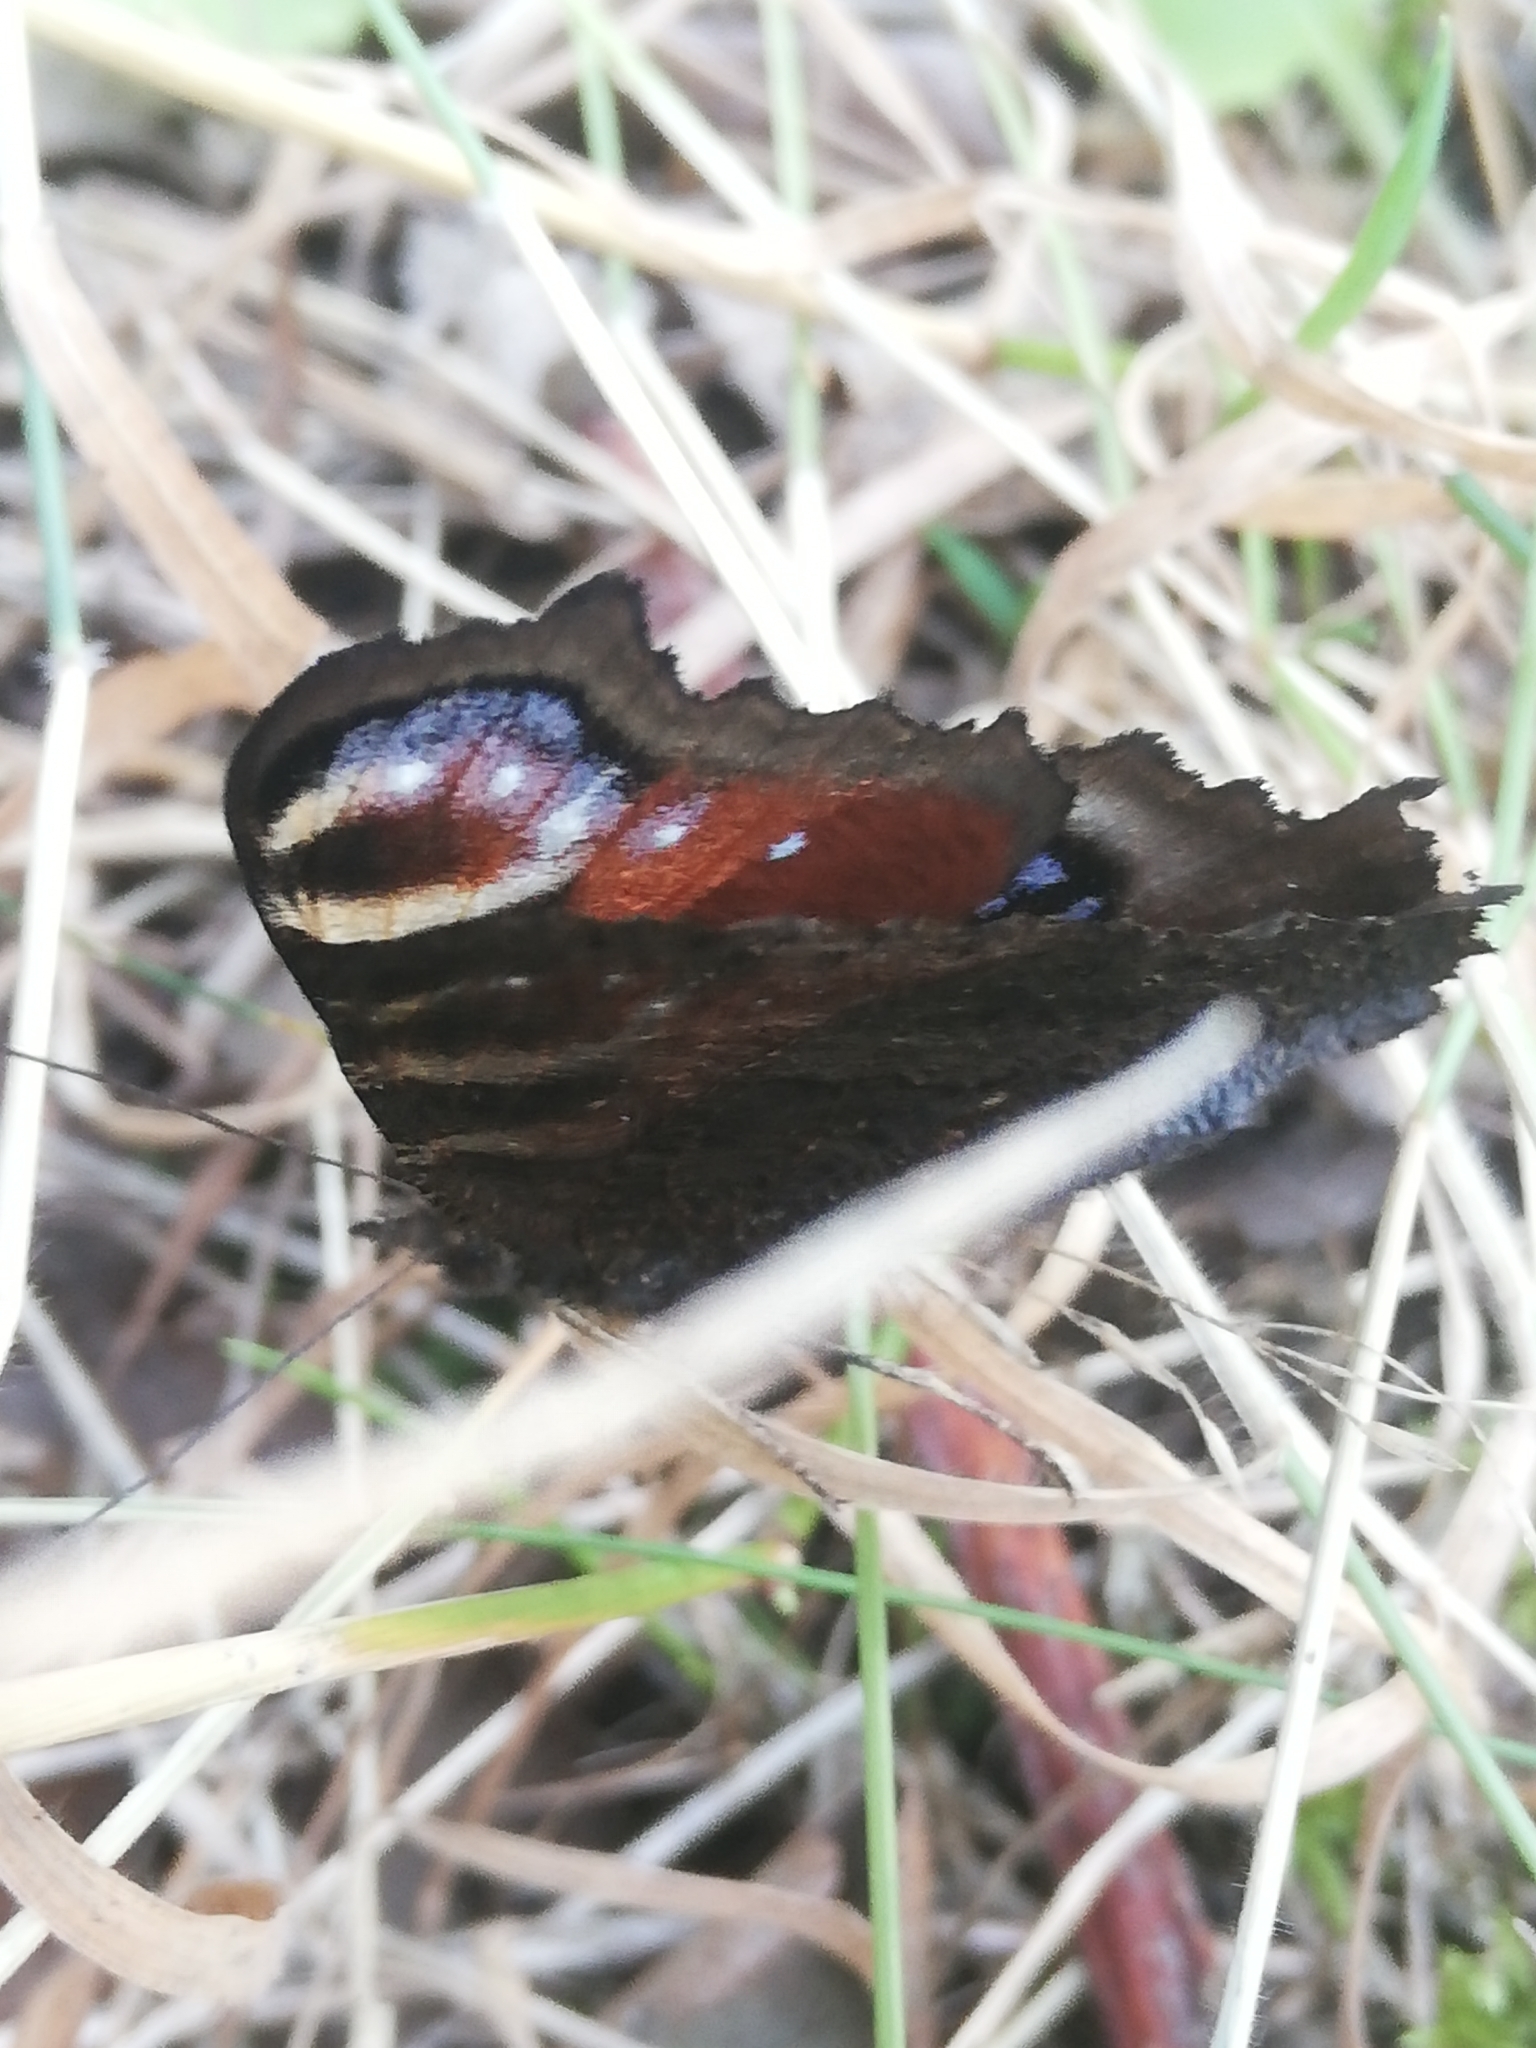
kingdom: Animalia
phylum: Arthropoda
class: Insecta
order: Lepidoptera
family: Nymphalidae
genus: Aglais
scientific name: Aglais io
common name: Peacock
